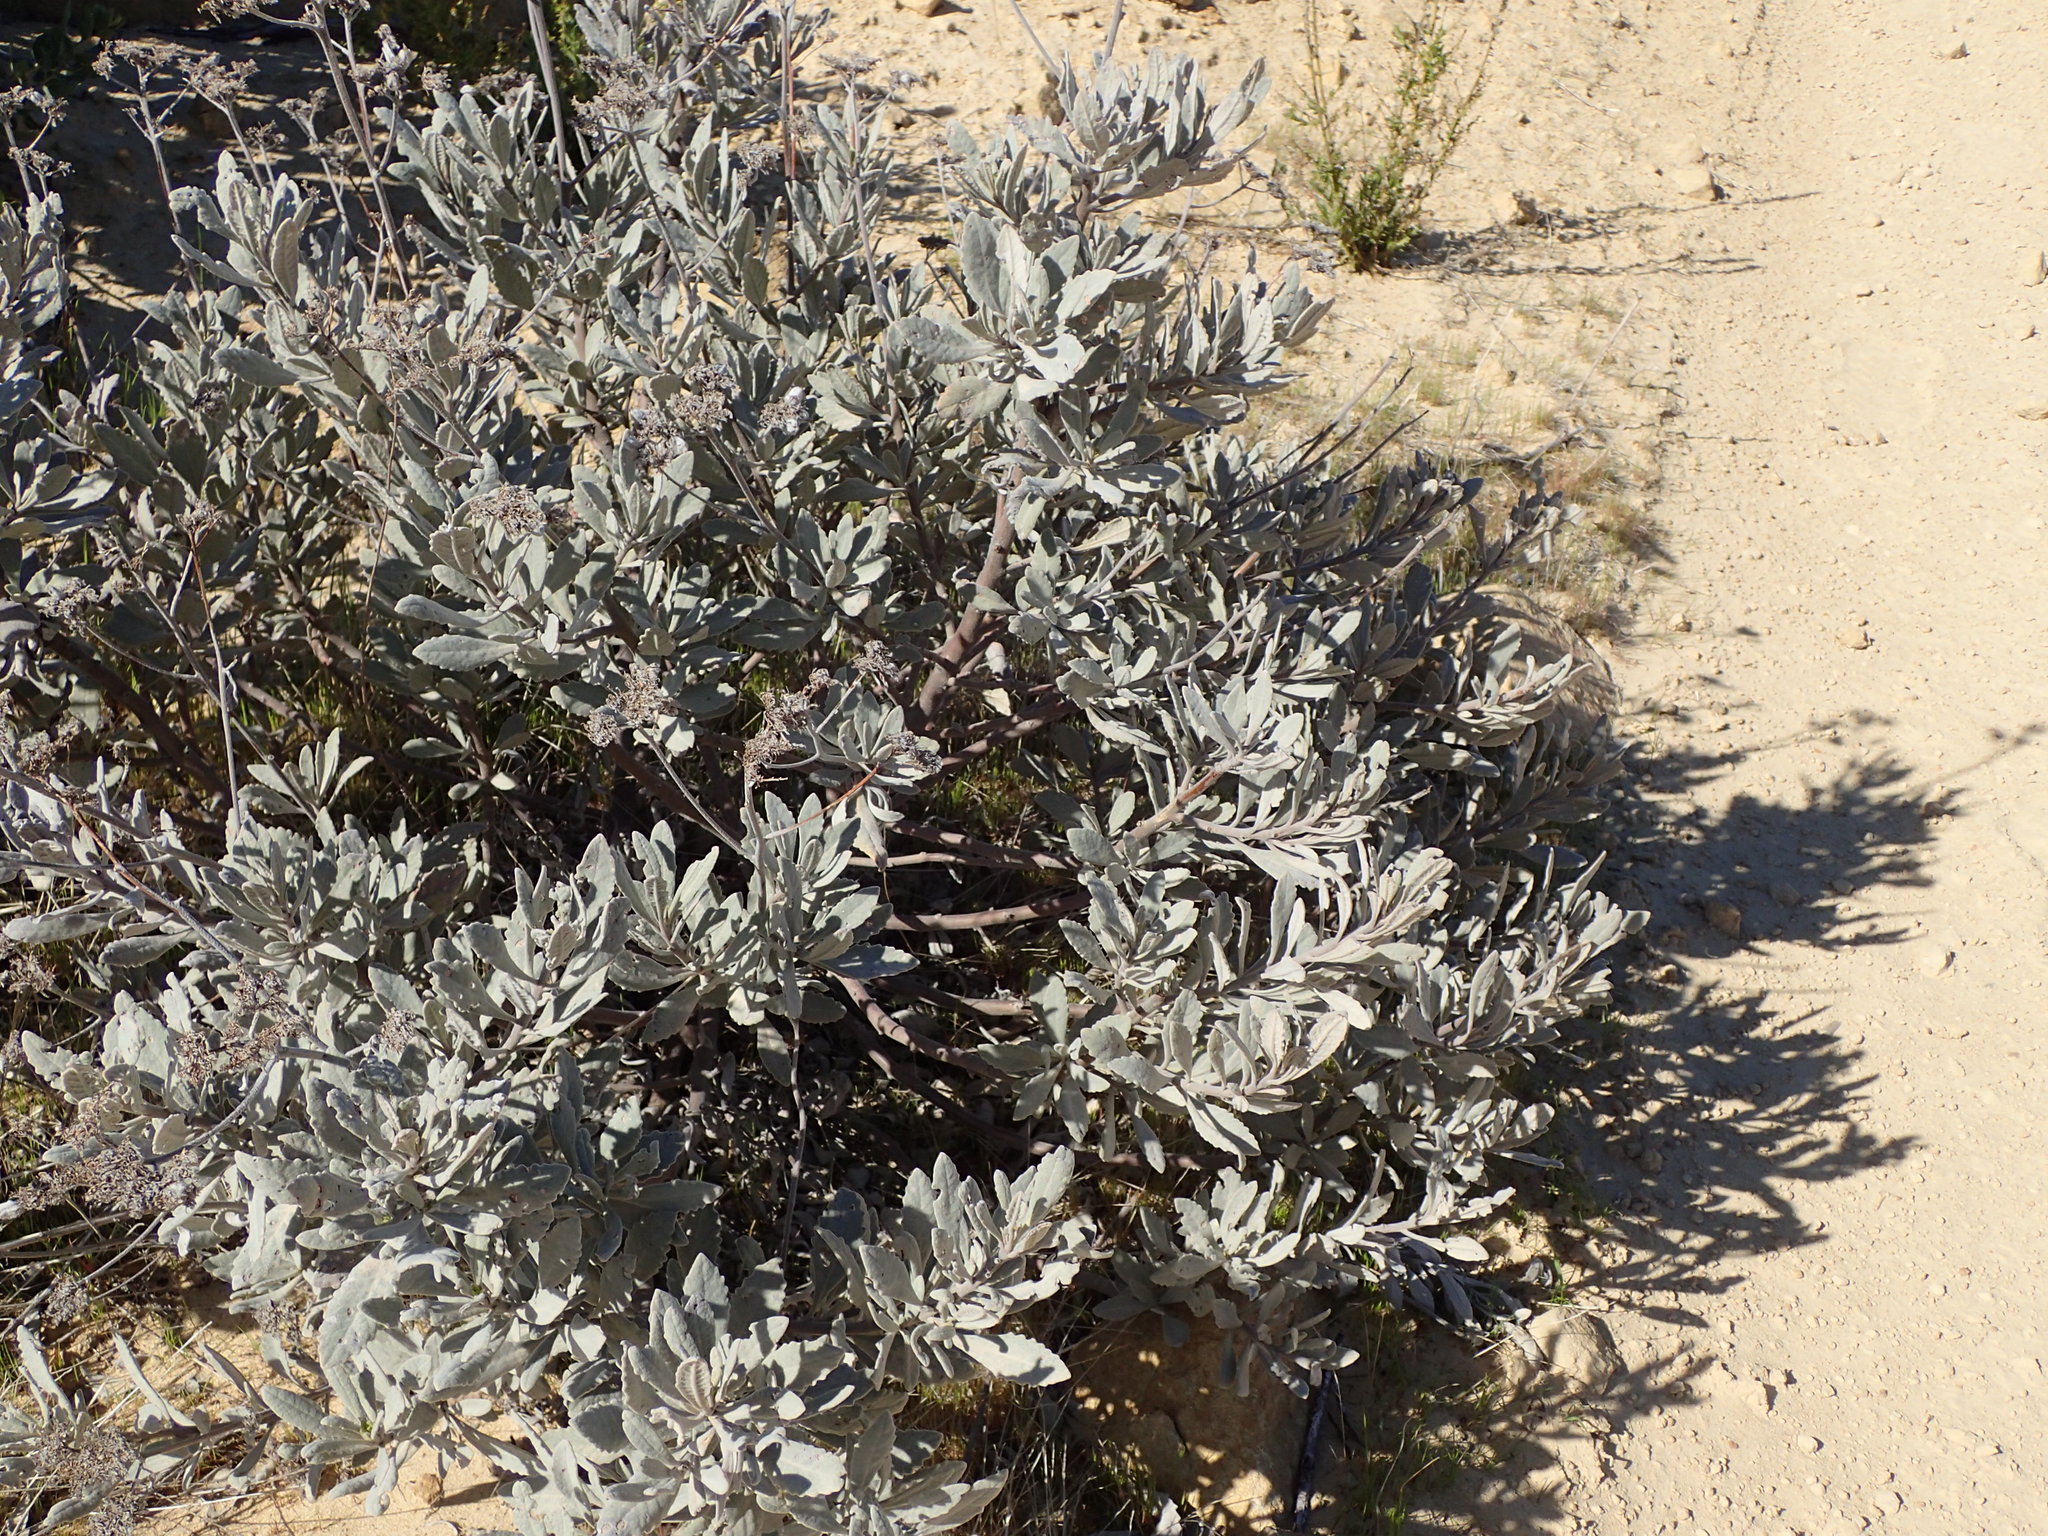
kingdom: Plantae
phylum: Tracheophyta
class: Magnoliopsida
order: Boraginales
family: Namaceae
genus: Eriodictyon
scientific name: Eriodictyon traskiae
